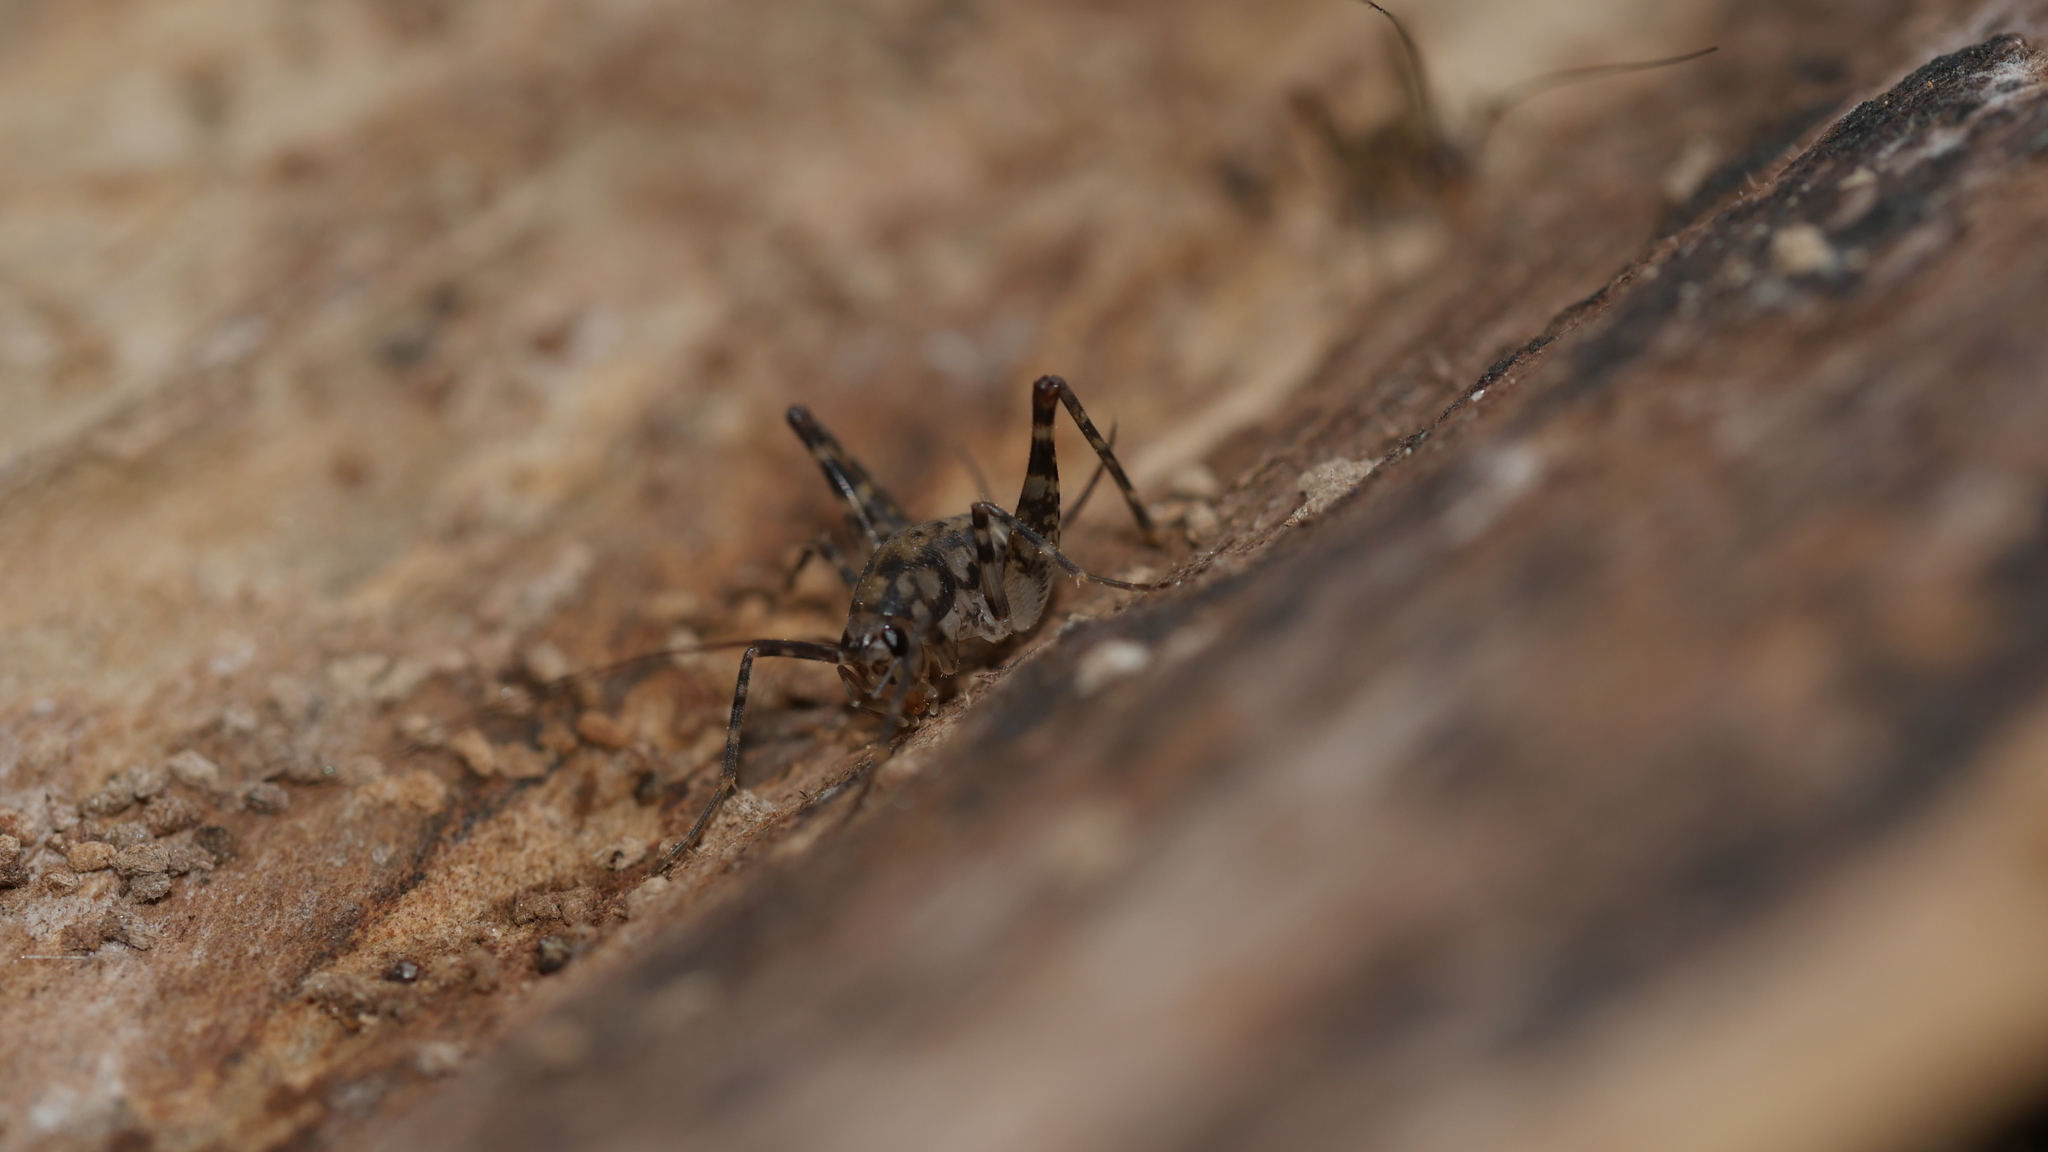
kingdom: Animalia
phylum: Arthropoda
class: Insecta
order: Orthoptera
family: Rhaphidophoridae
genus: Tachycines
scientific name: Tachycines asynamorus
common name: Greenhouse camel cricket
